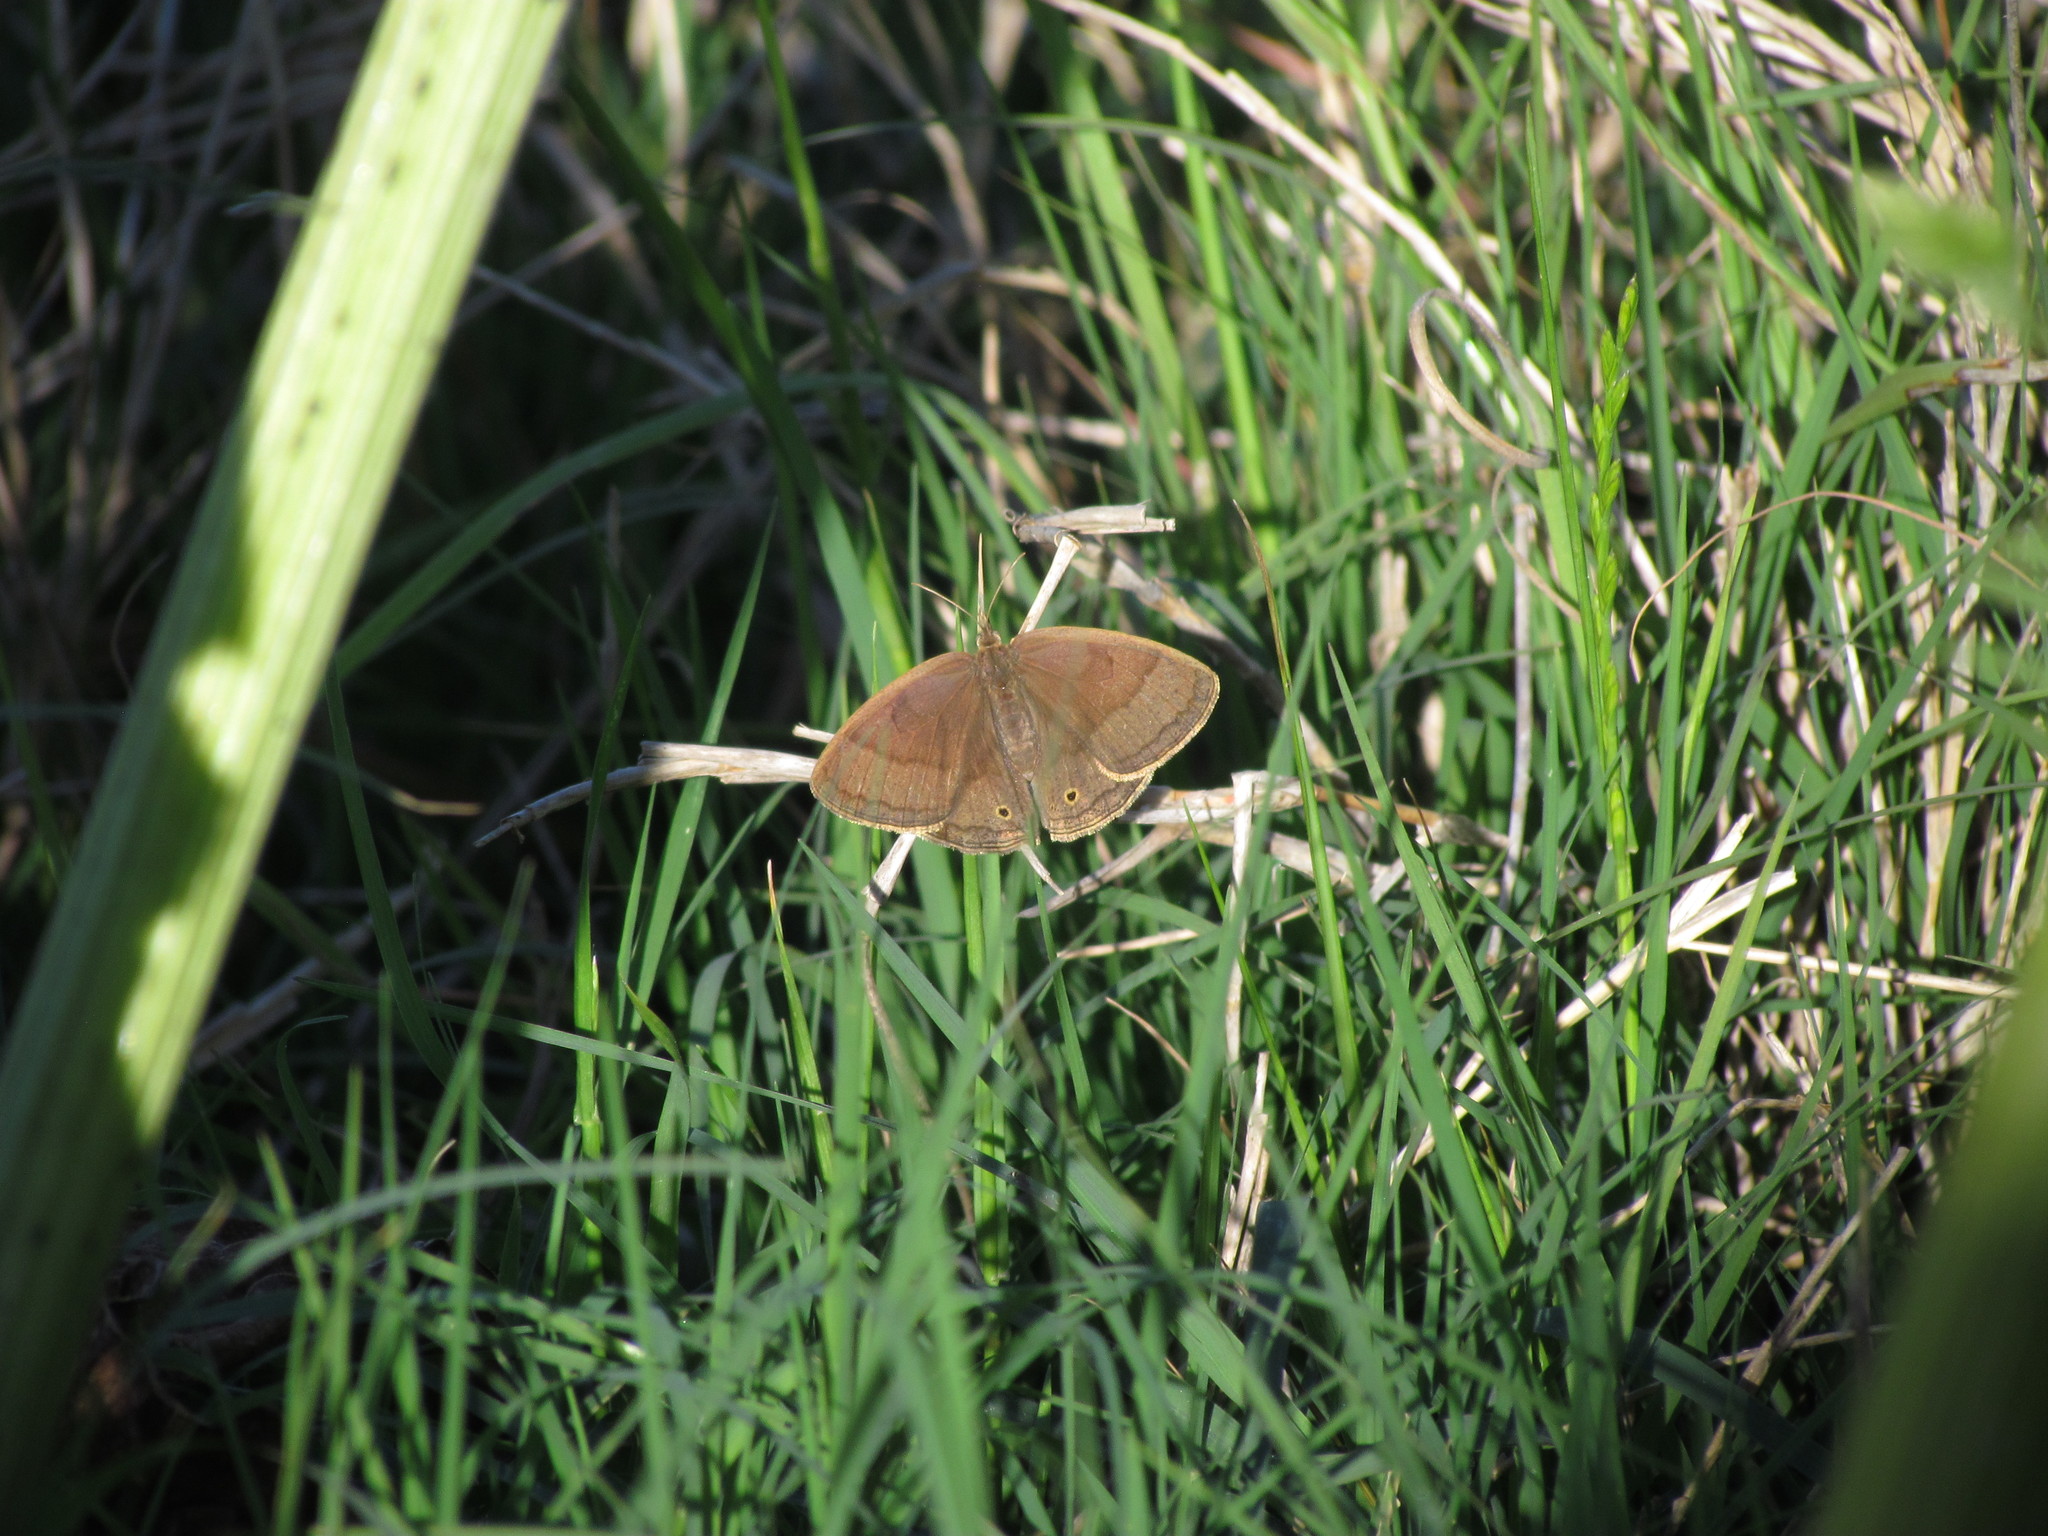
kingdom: Animalia
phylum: Arthropoda
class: Insecta
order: Lepidoptera
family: Nymphalidae
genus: Paryphthimoides
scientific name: Paryphthimoides poltys
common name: Poltys satyr
